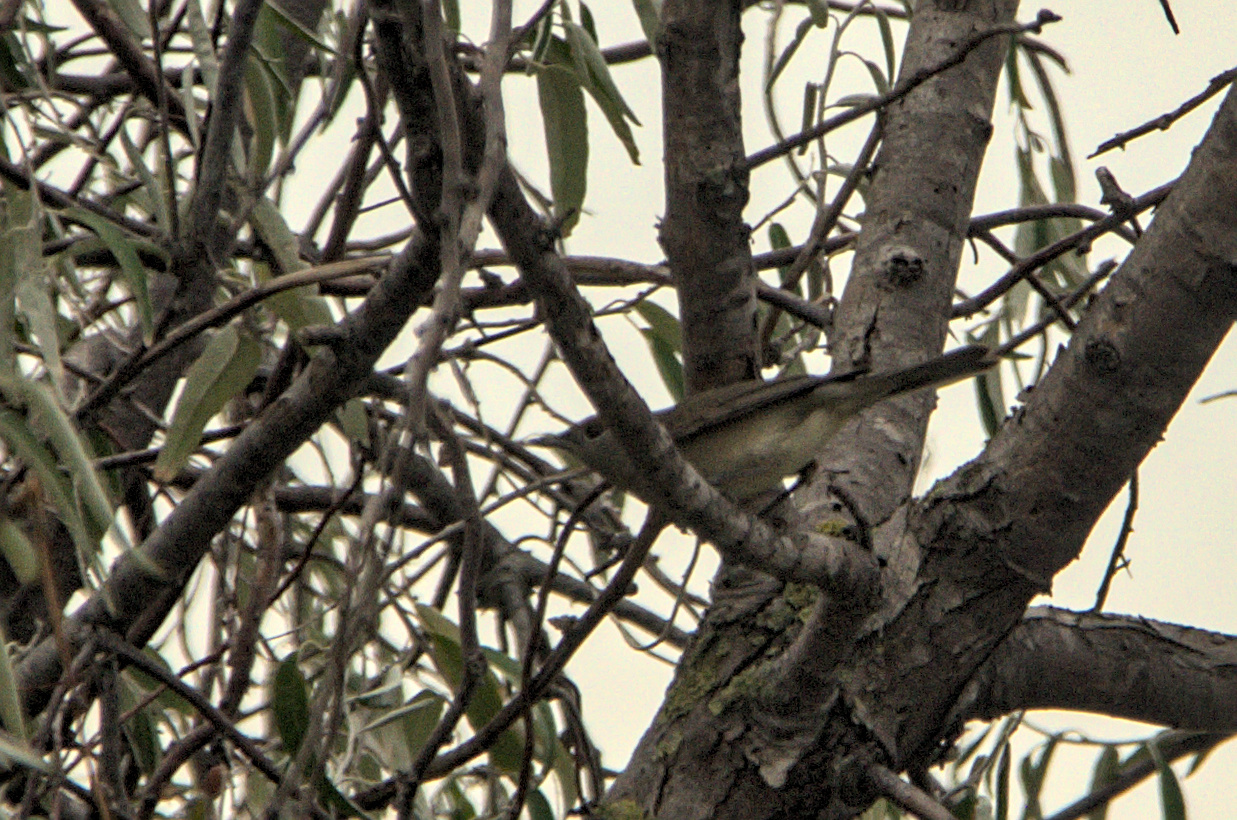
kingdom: Animalia
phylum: Chordata
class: Aves
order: Passeriformes
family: Sylviidae
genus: Sylvia
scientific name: Sylvia atricapilla
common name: Eurasian blackcap
